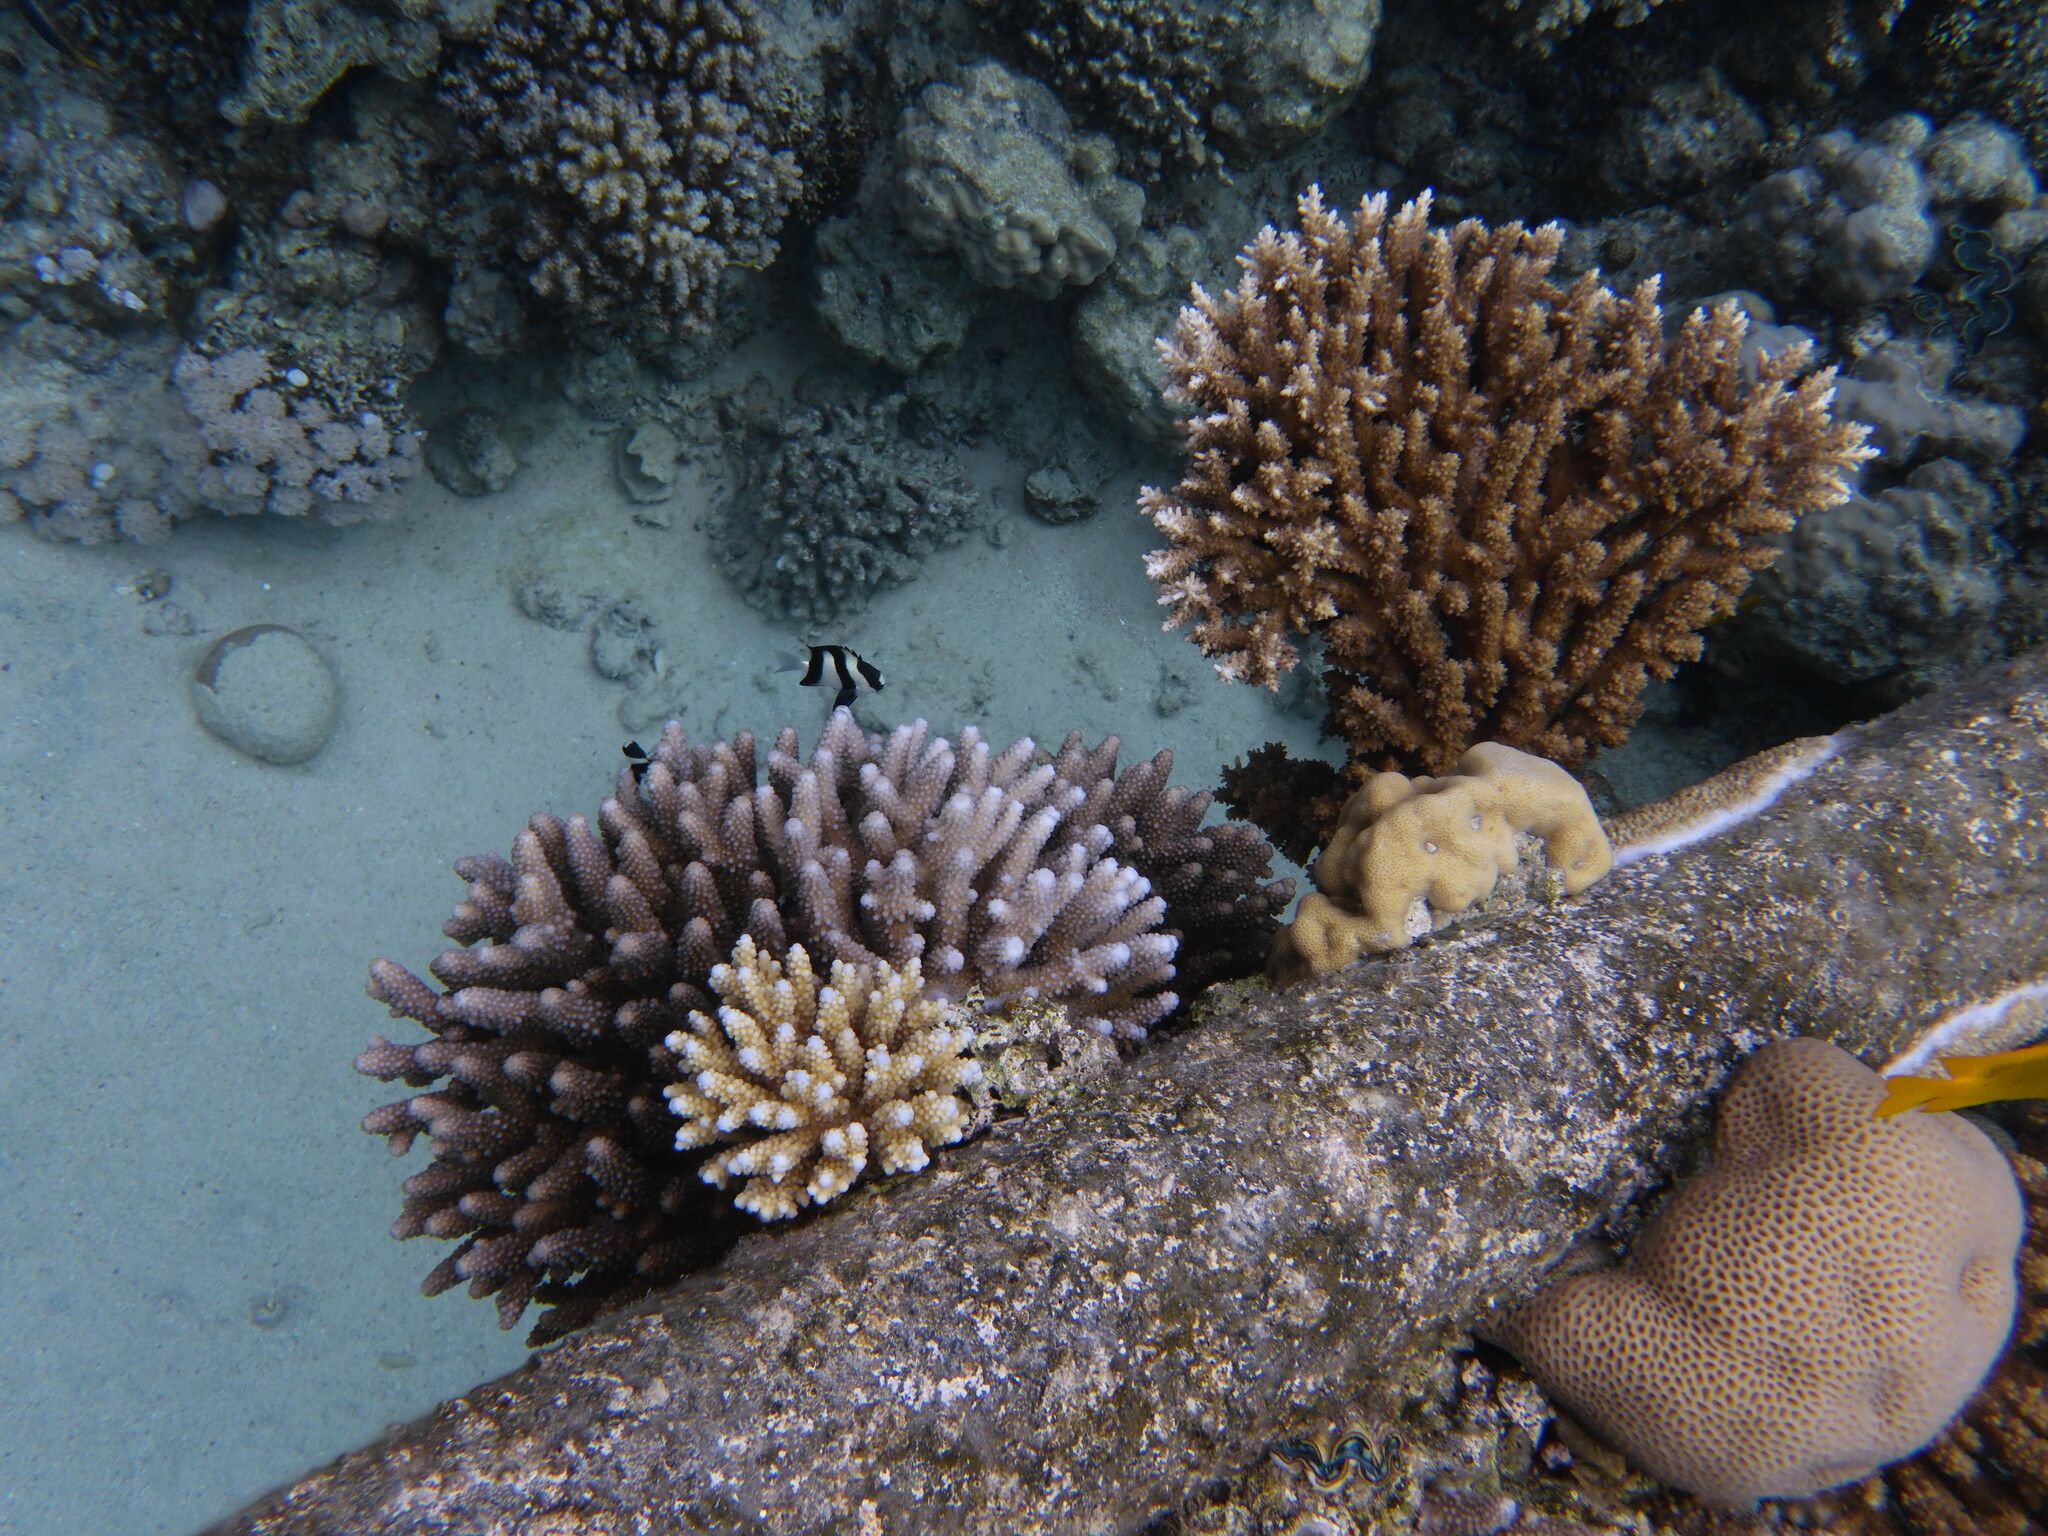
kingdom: Animalia
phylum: Chordata
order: Perciformes
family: Pomacentridae
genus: Dascyllus
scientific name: Dascyllus abudafur
